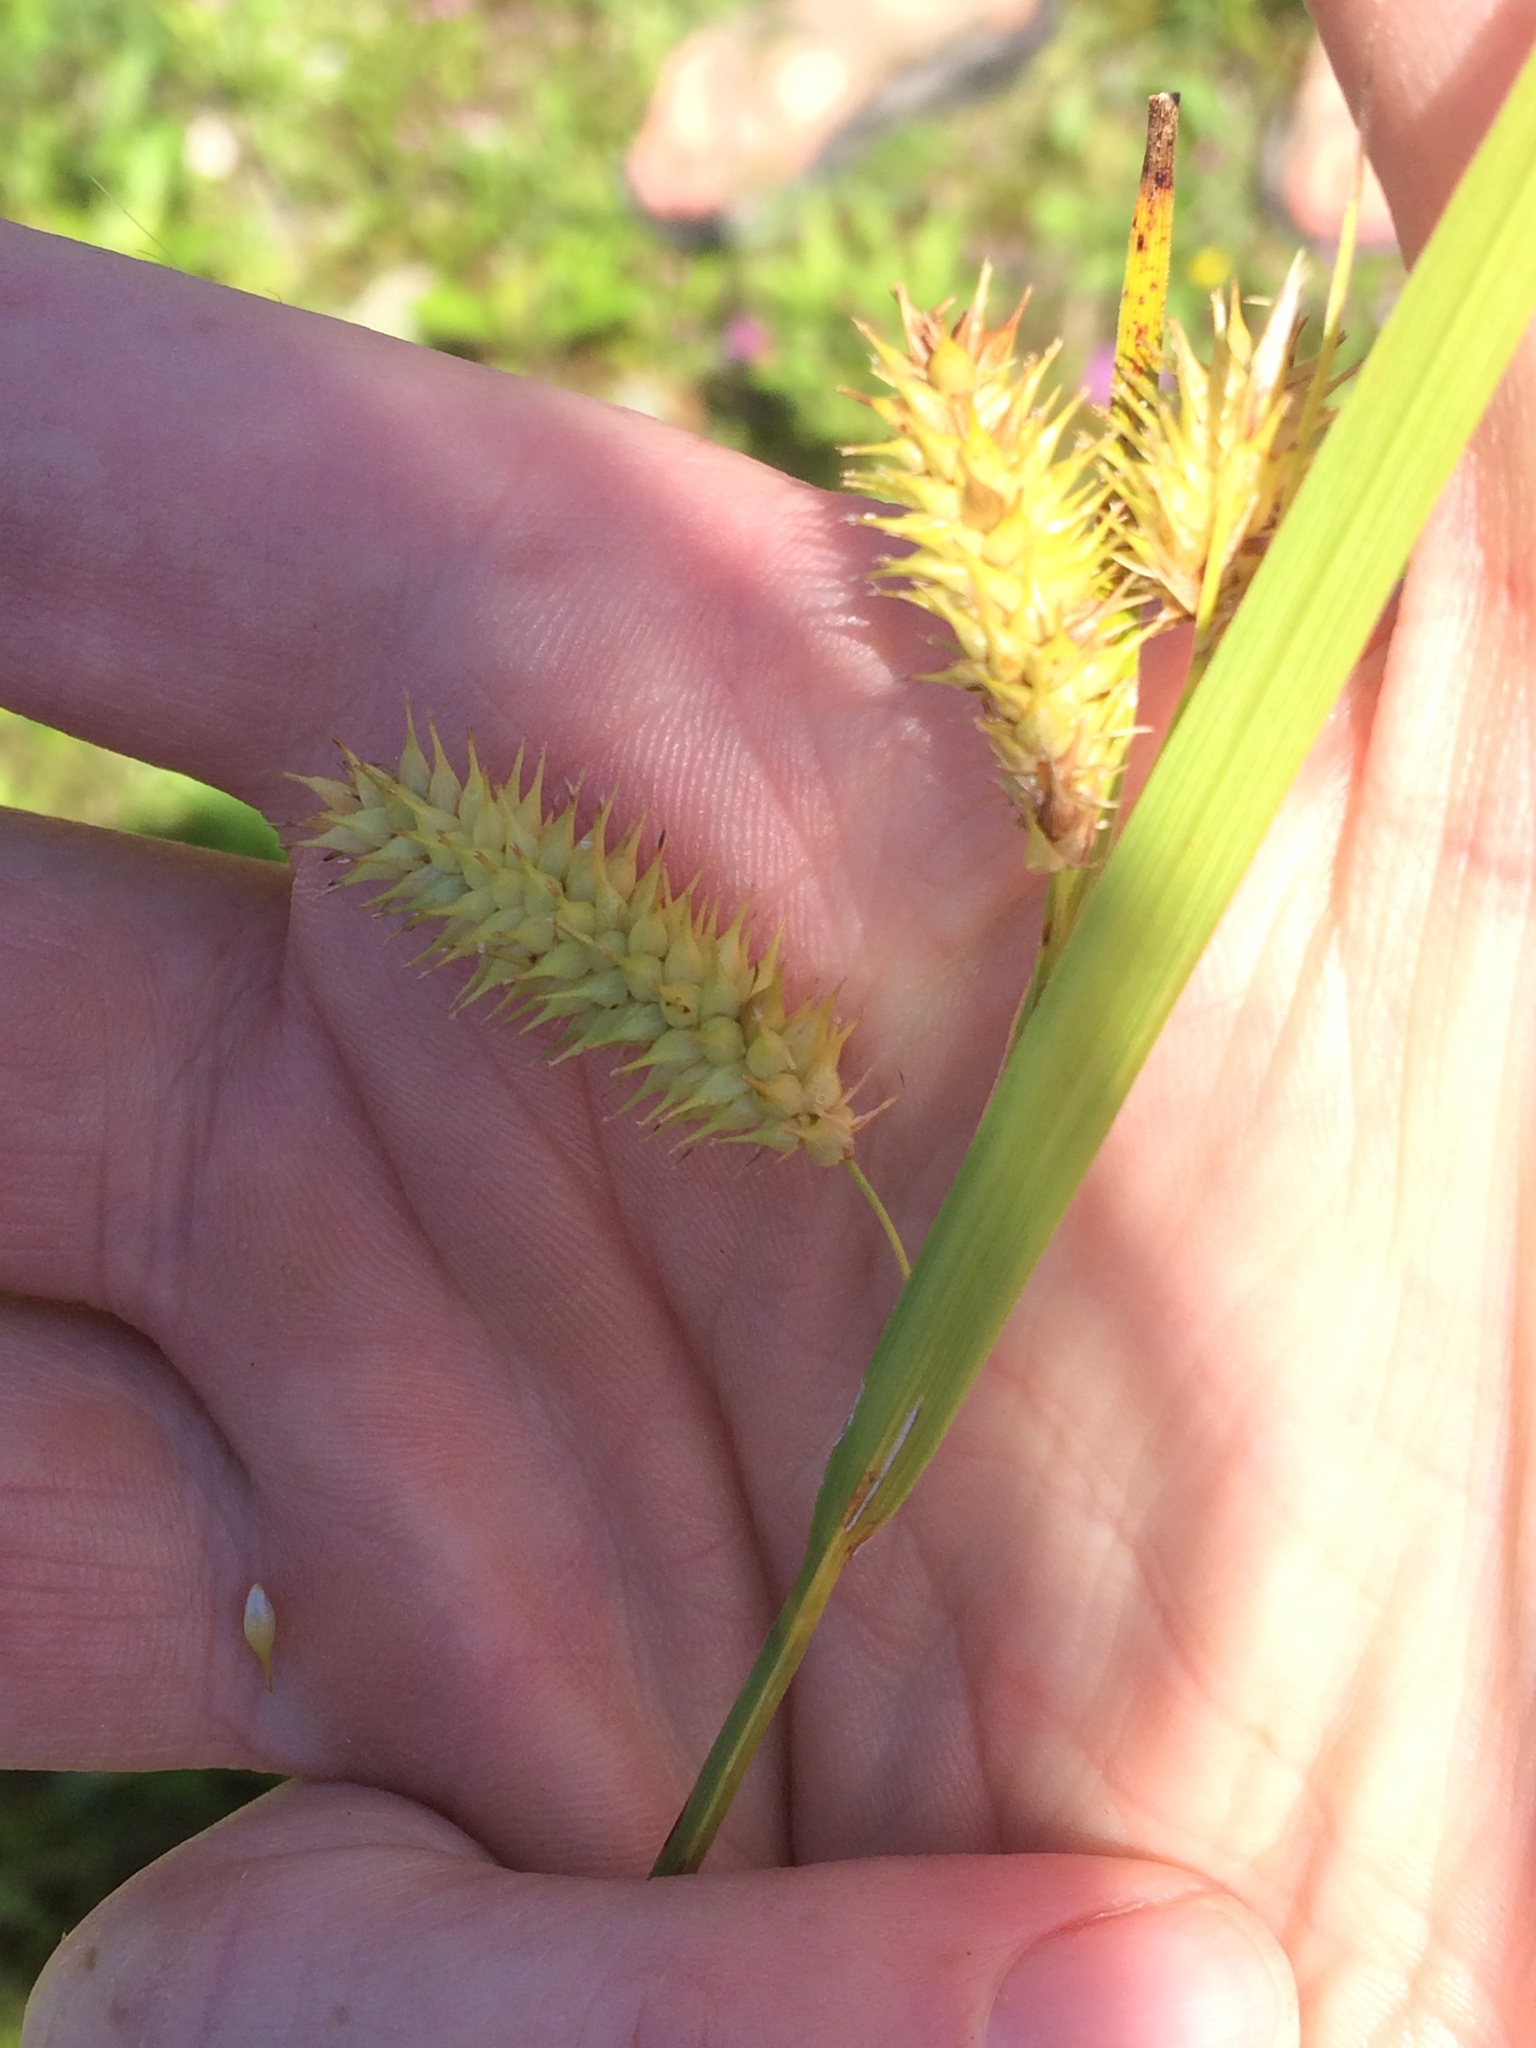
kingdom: Plantae
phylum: Tracheophyta
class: Liliopsida
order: Poales
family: Cyperaceae
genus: Carex
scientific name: Carex hystericina
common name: Bottlebrush sedge
